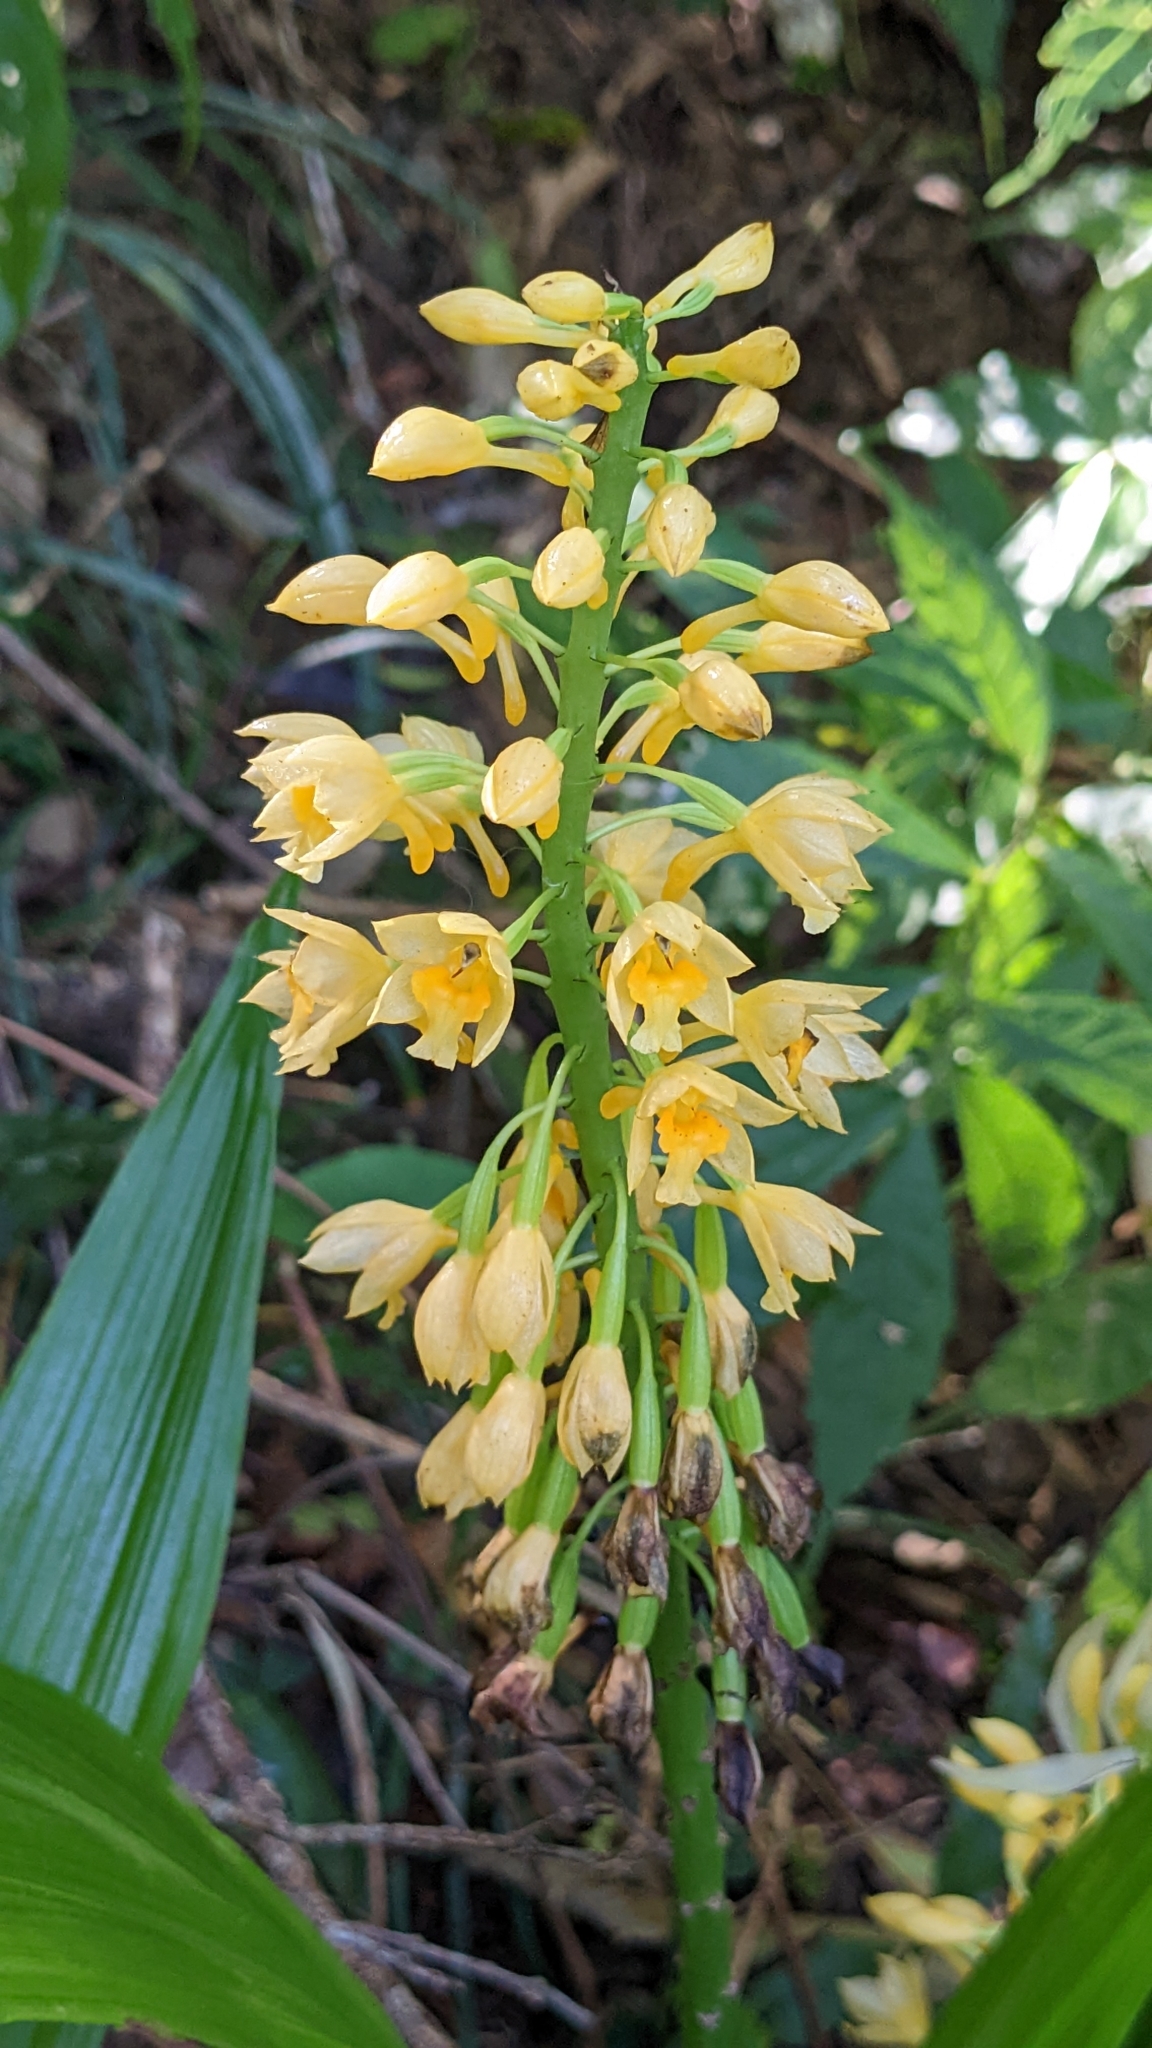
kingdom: Plantae
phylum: Tracheophyta
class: Liliopsida
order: Asparagales
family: Orchidaceae
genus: Calanthe
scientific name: Calanthe formosana
